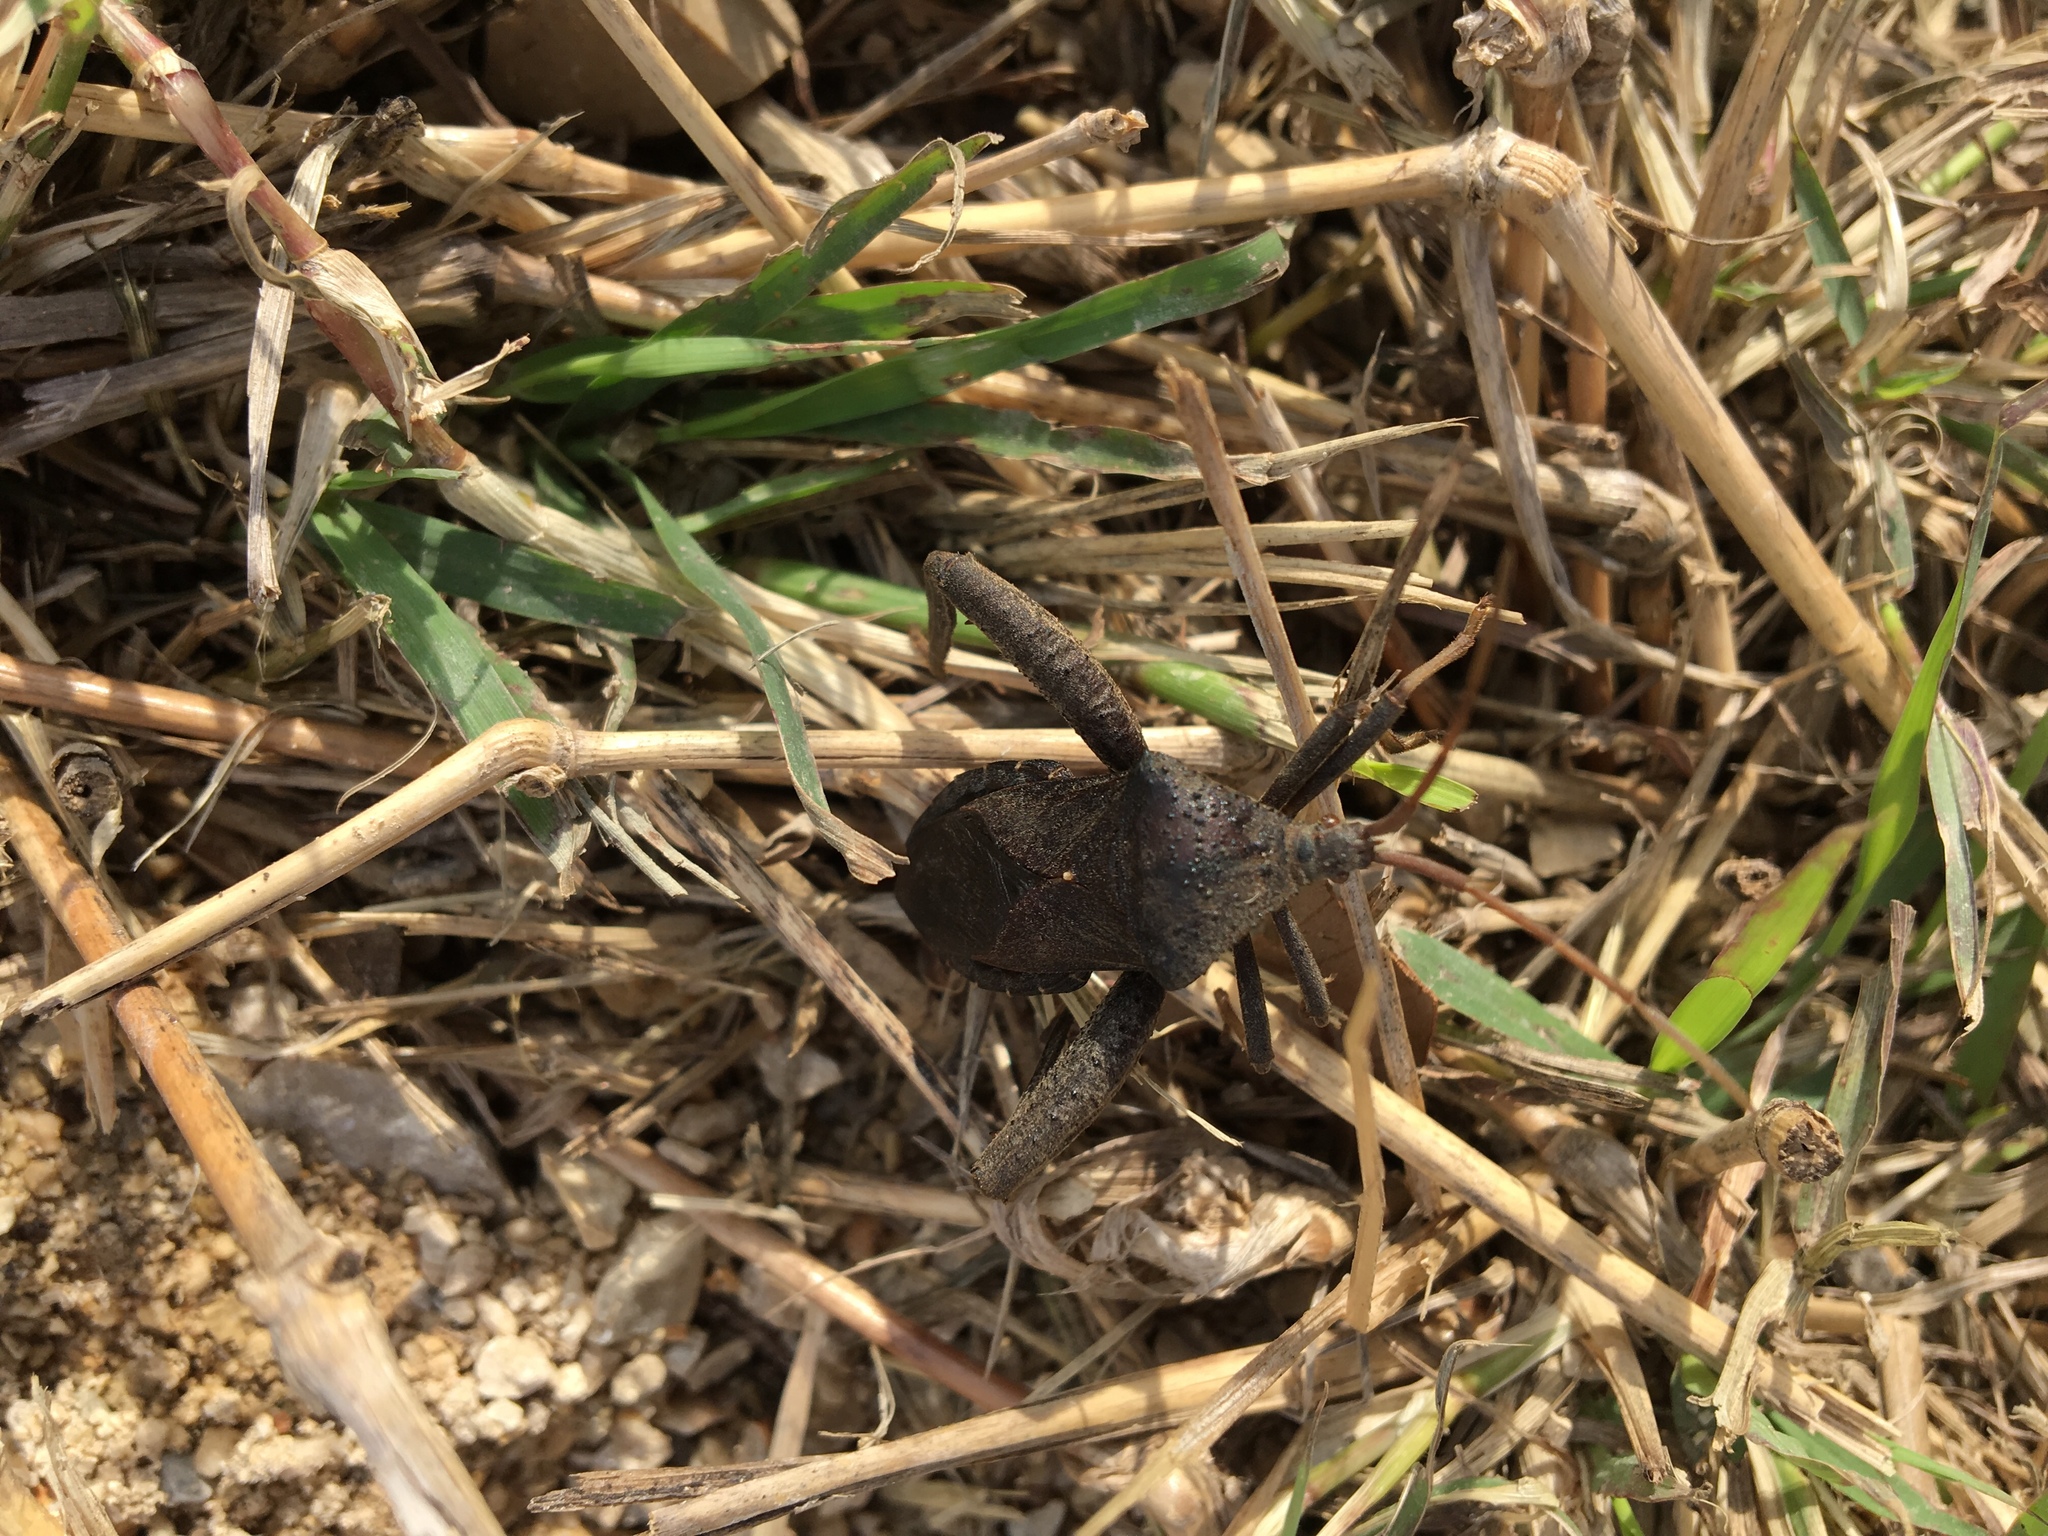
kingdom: Animalia
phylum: Arthropoda
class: Insecta
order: Hemiptera
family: Coreidae
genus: Acanthocephala
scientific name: Acanthocephala femorata
